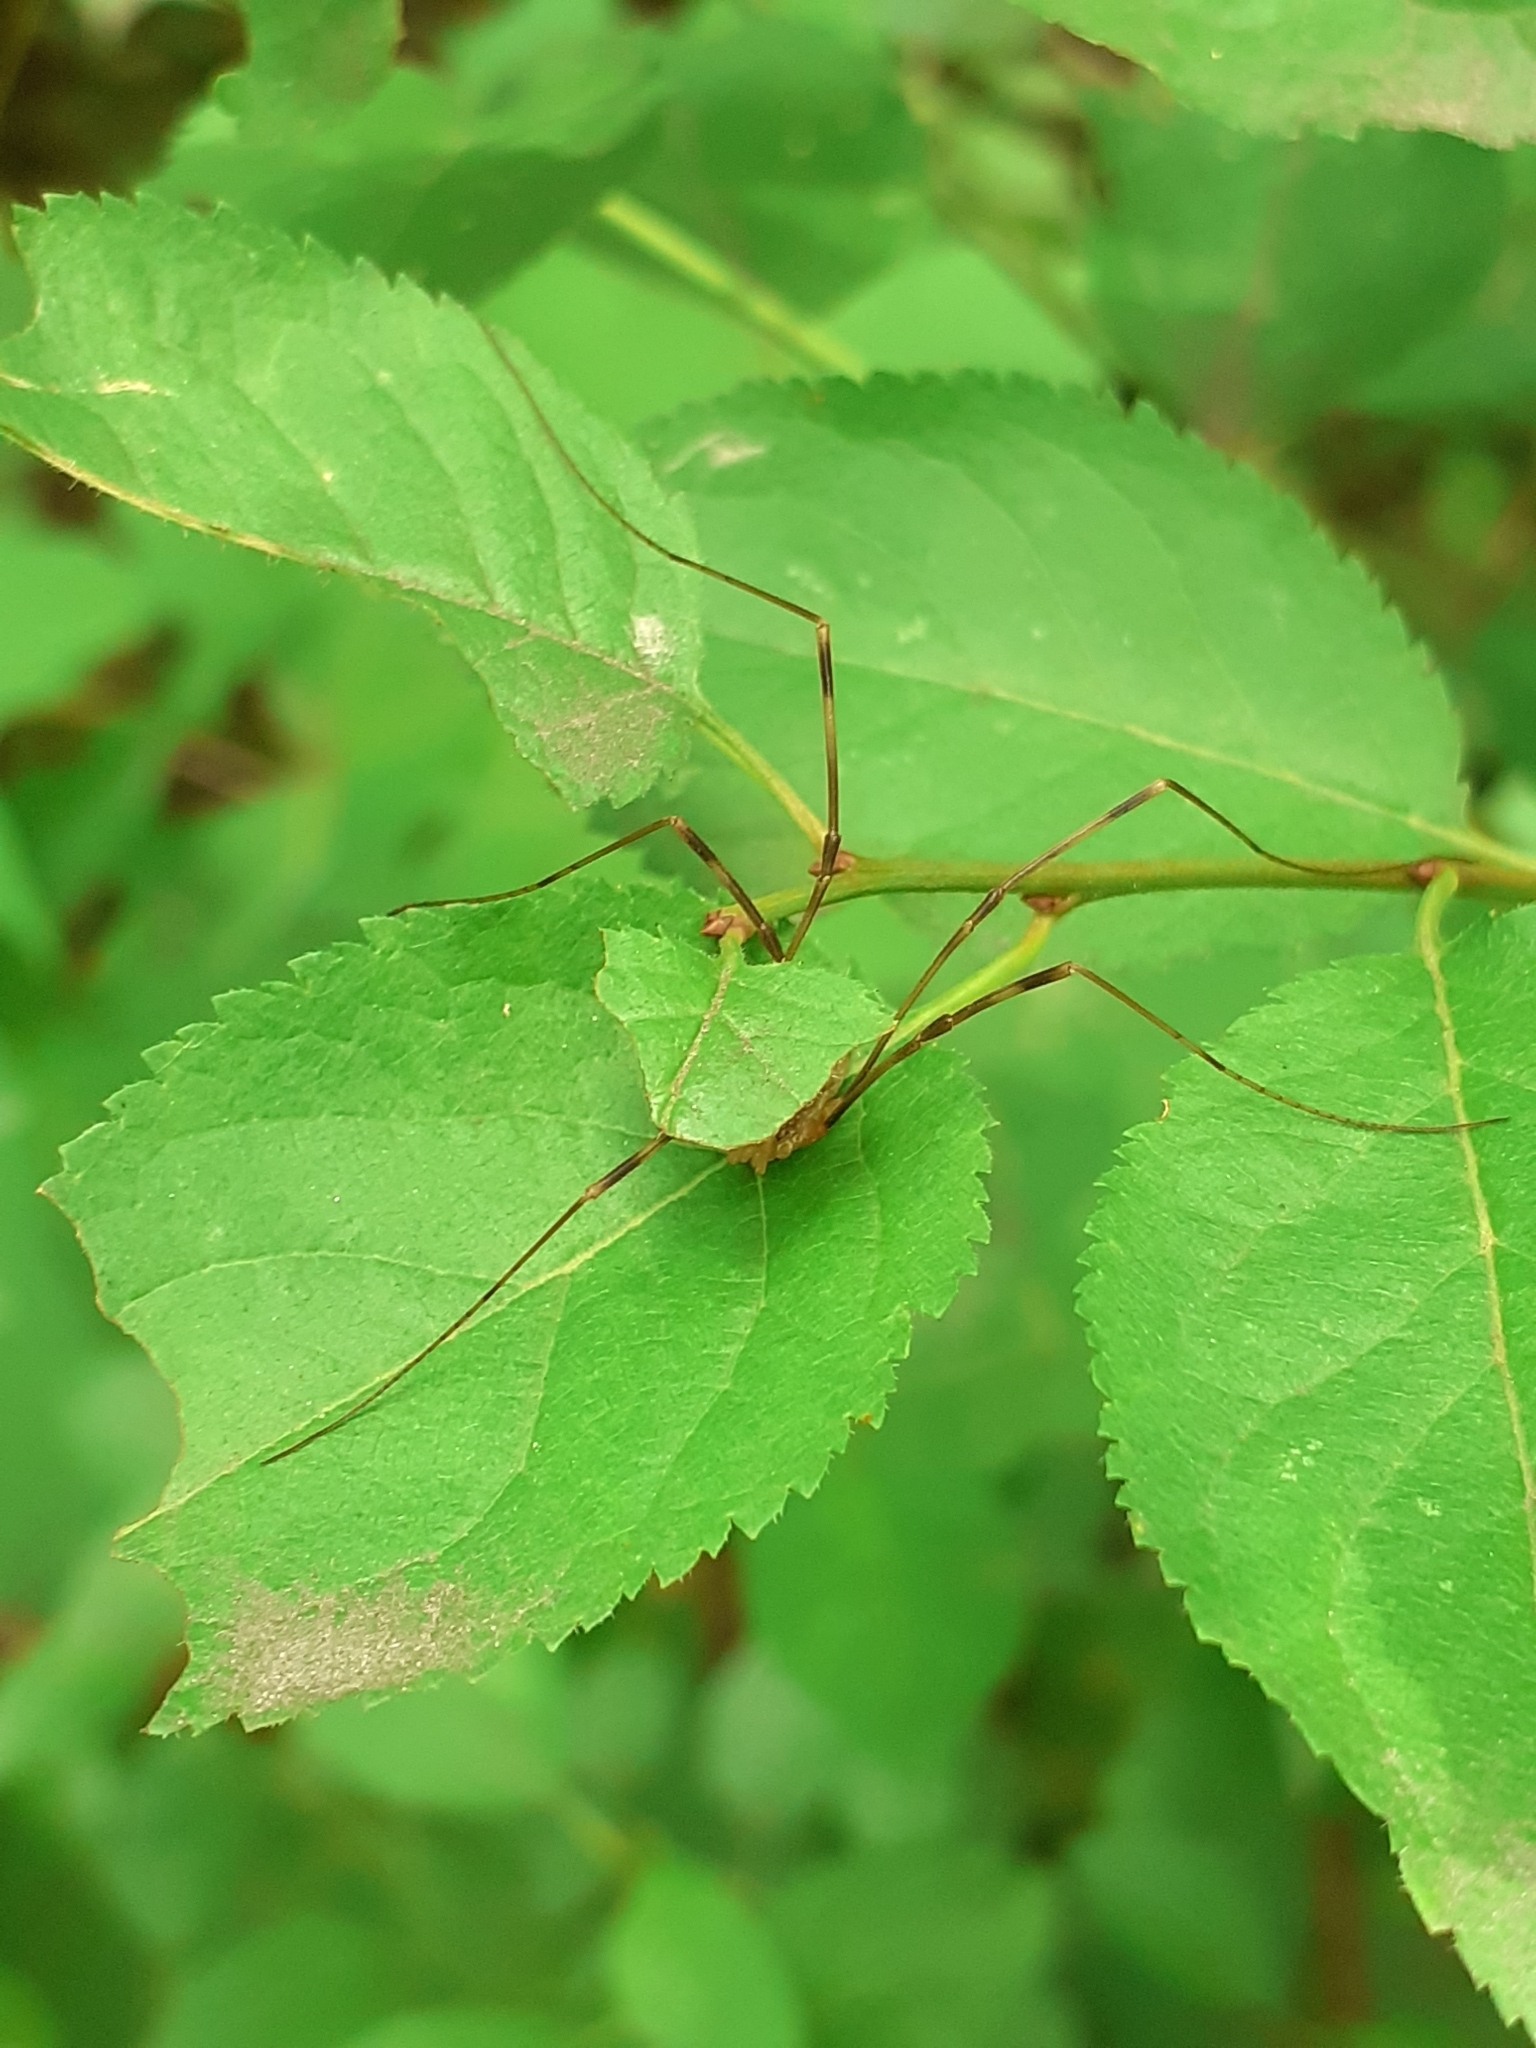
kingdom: Animalia
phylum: Arthropoda
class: Arachnida
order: Opiliones
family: Phalangiidae
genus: Opilio
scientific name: Opilio canestrinii
